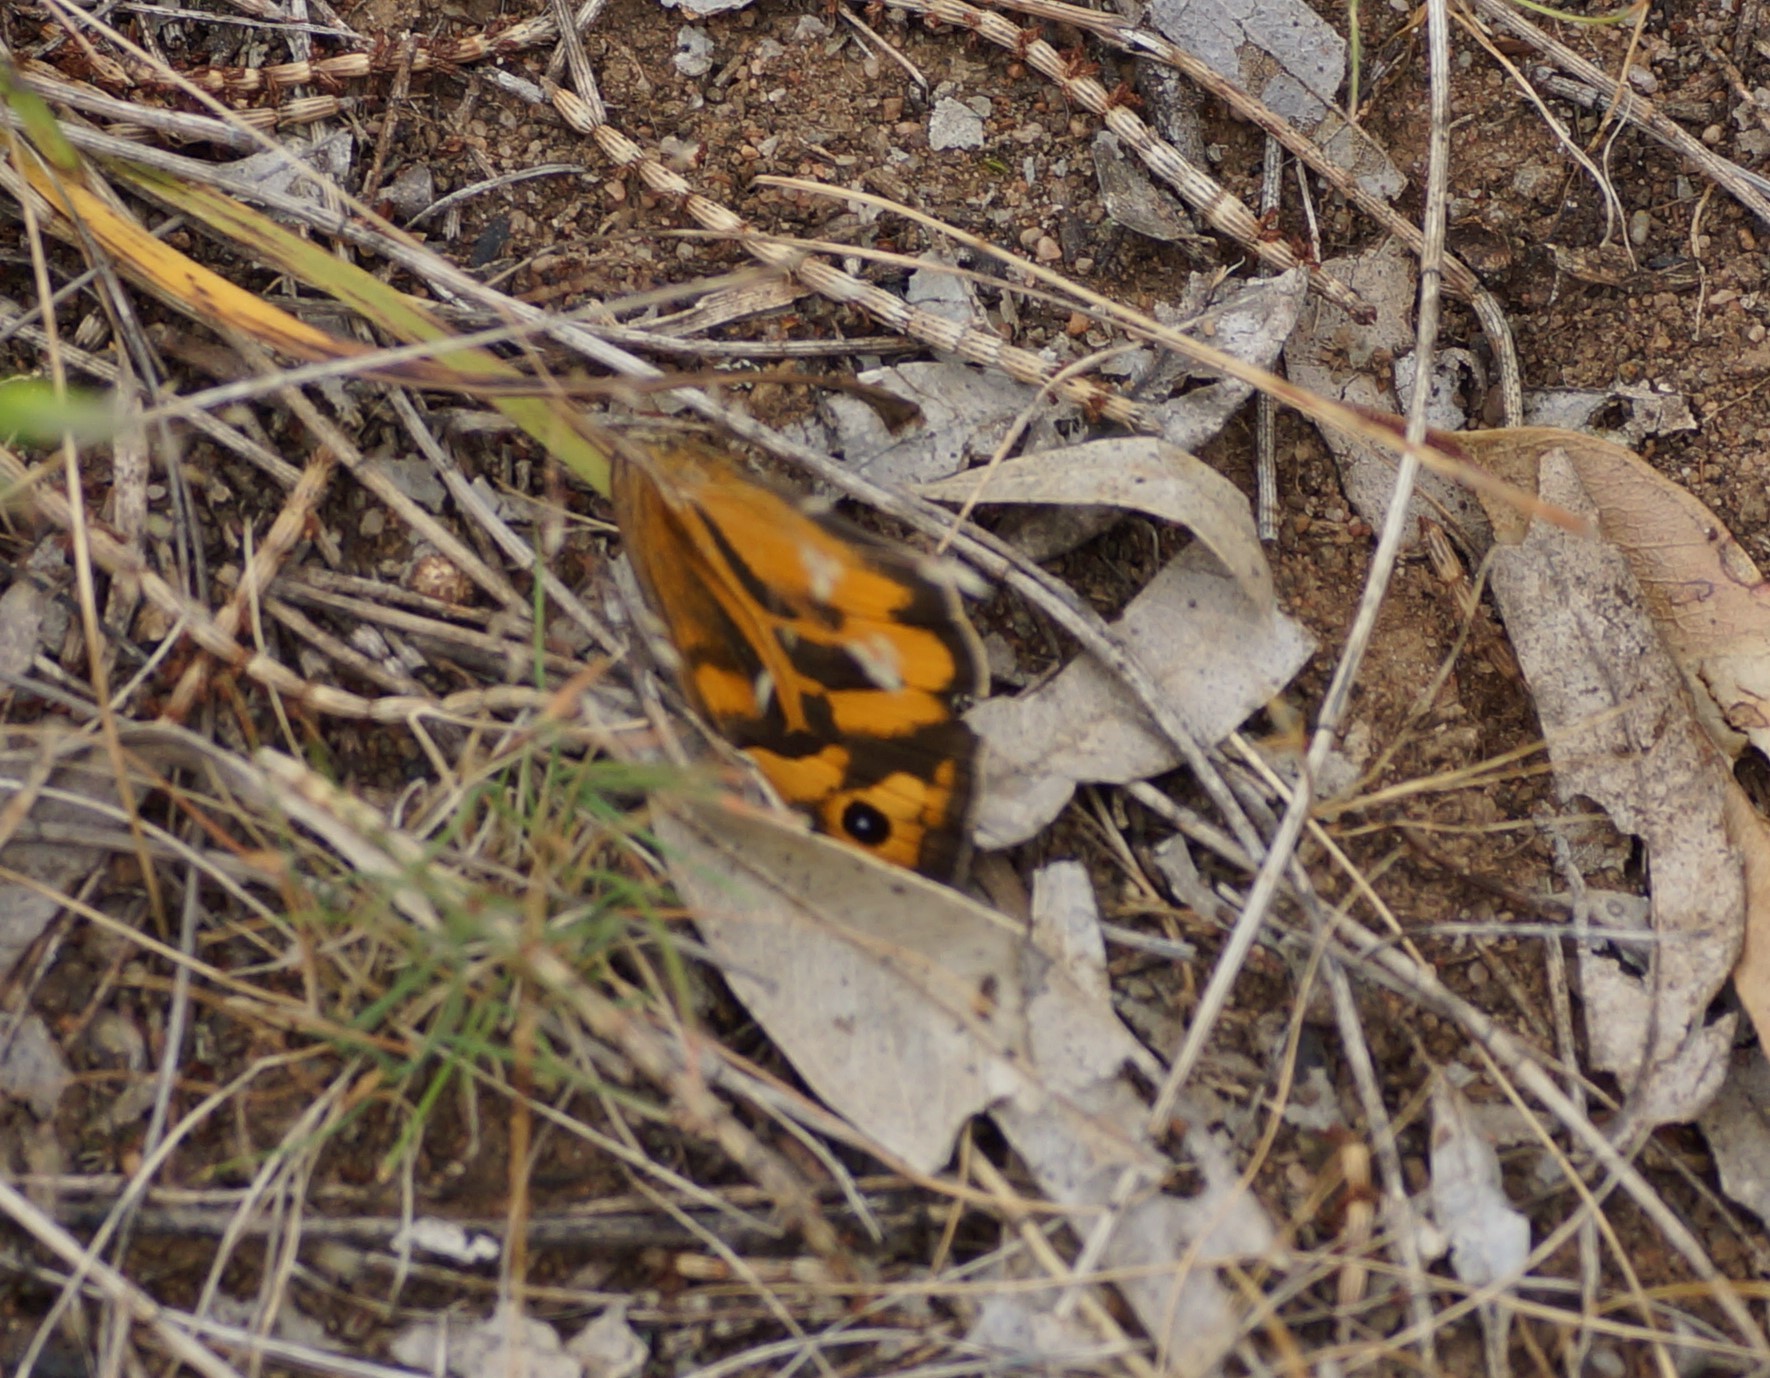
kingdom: Animalia
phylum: Arthropoda
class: Insecta
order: Lepidoptera
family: Nymphalidae
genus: Heteronympha
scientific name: Heteronympha merope
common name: Common brown
